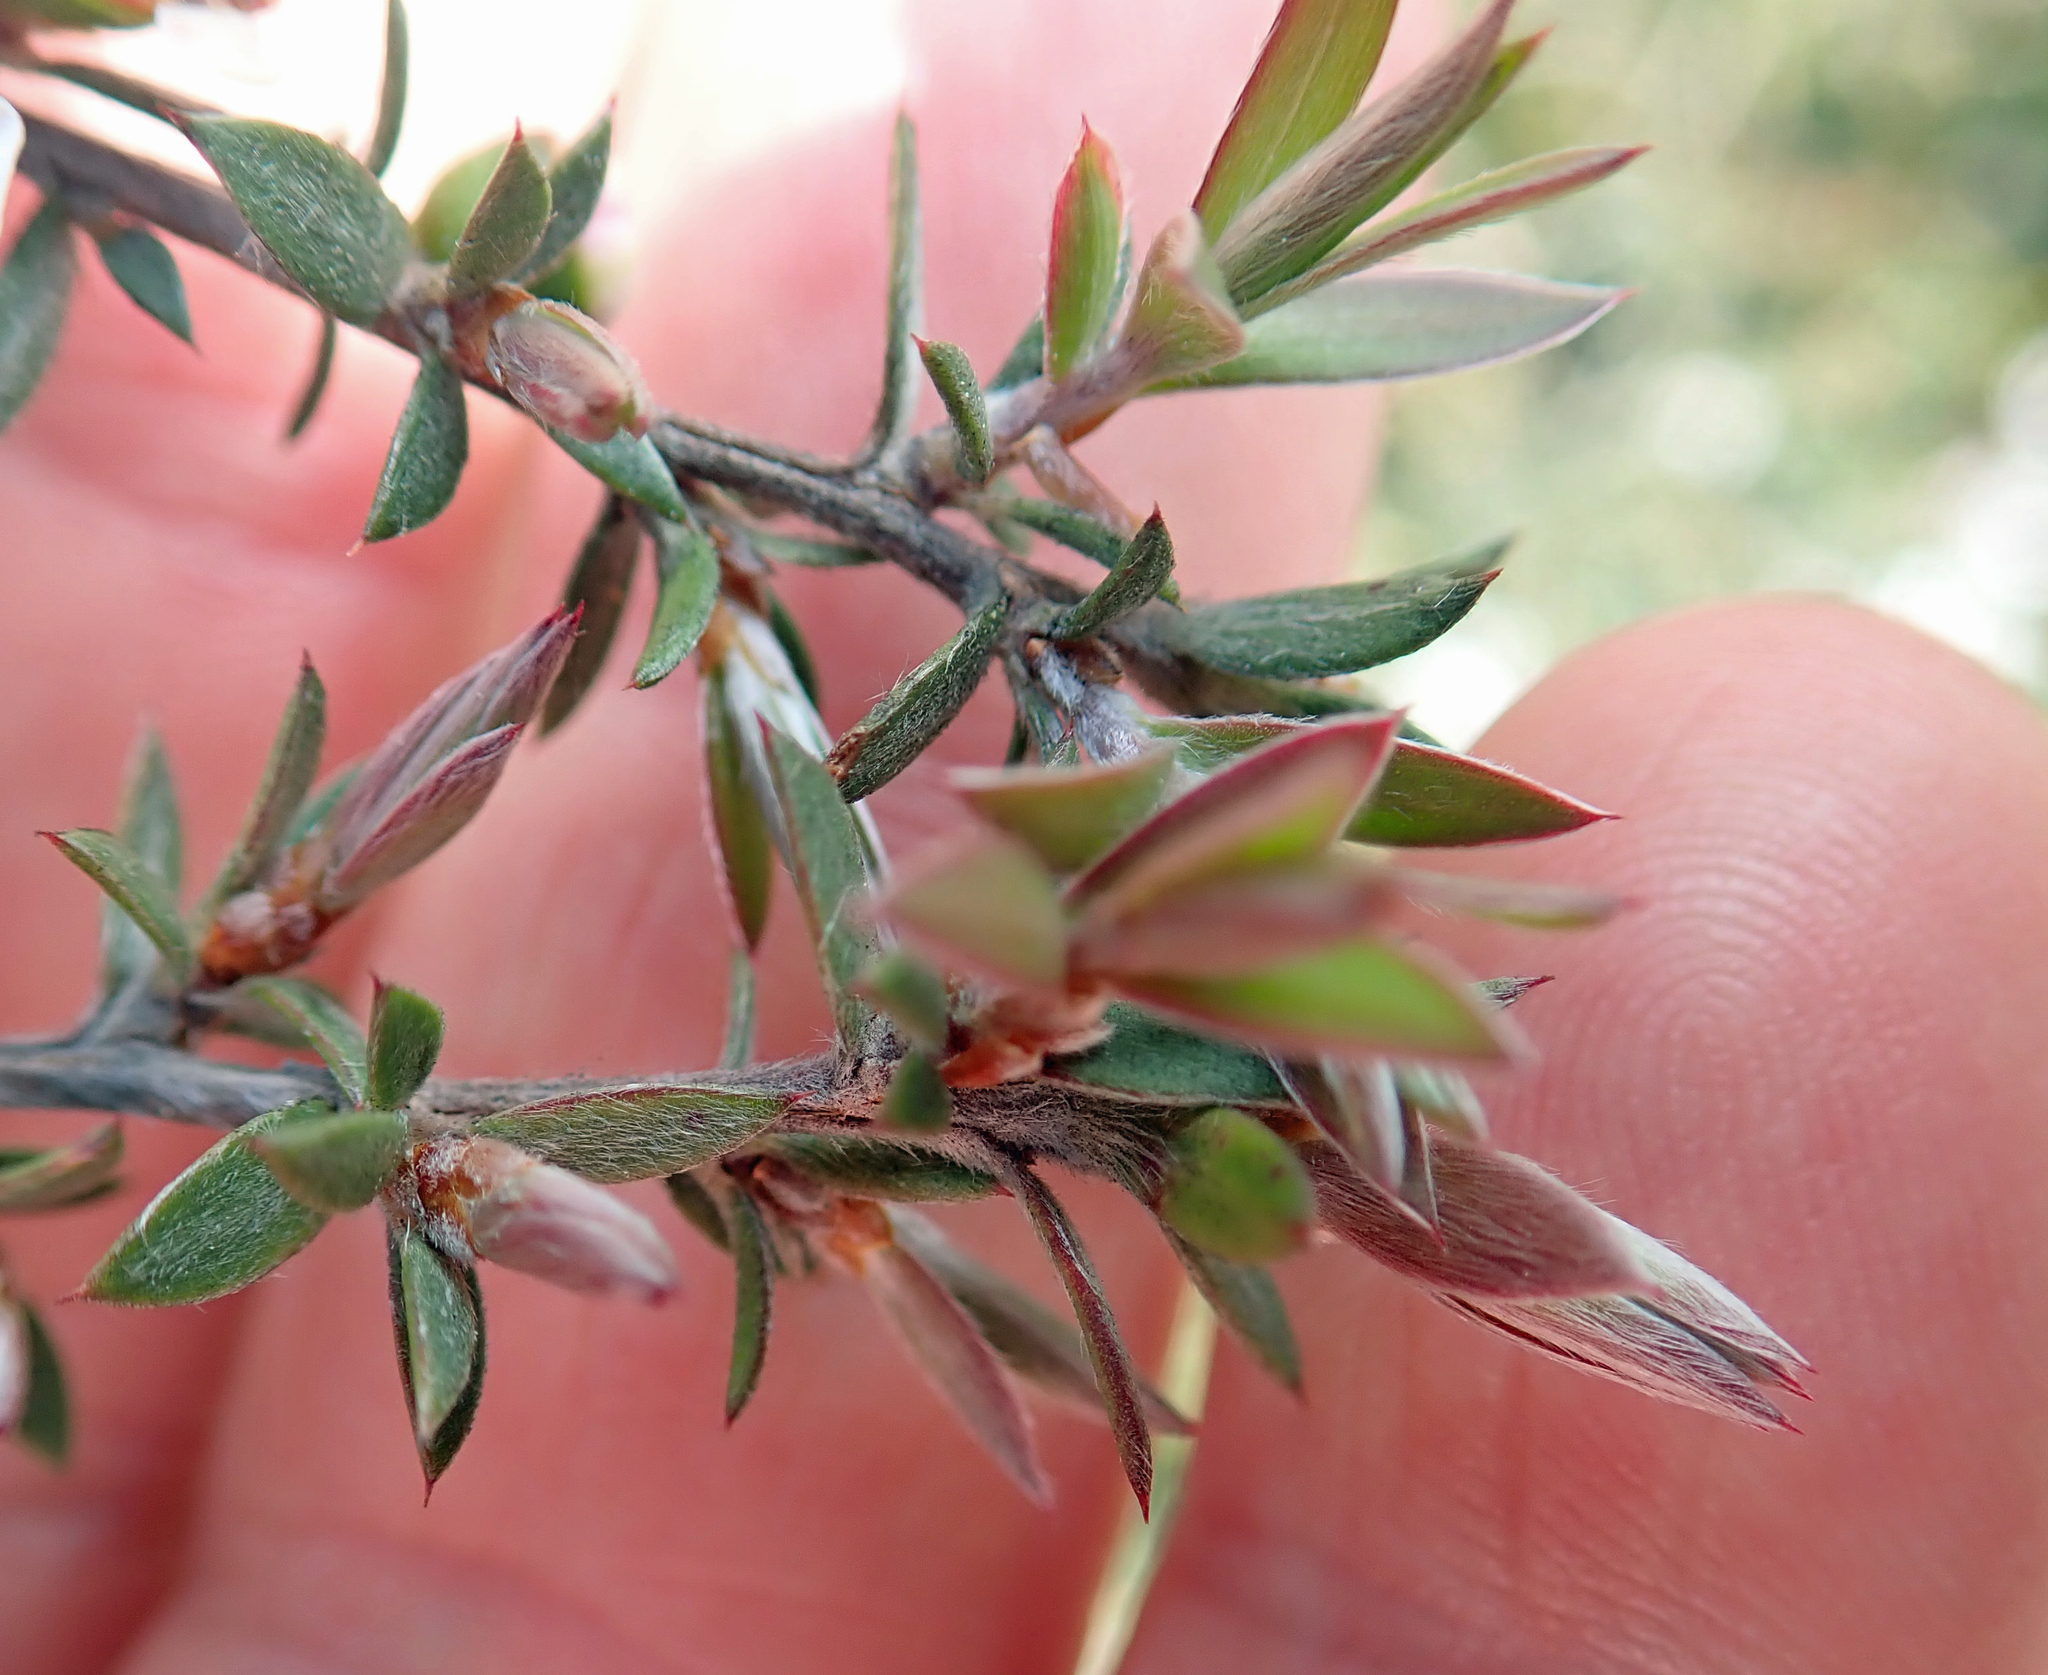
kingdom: Plantae
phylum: Tracheophyta
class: Magnoliopsida
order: Myrtales
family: Myrtaceae
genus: Leptospermum
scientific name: Leptospermum scoparium
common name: Broom tea-tree
